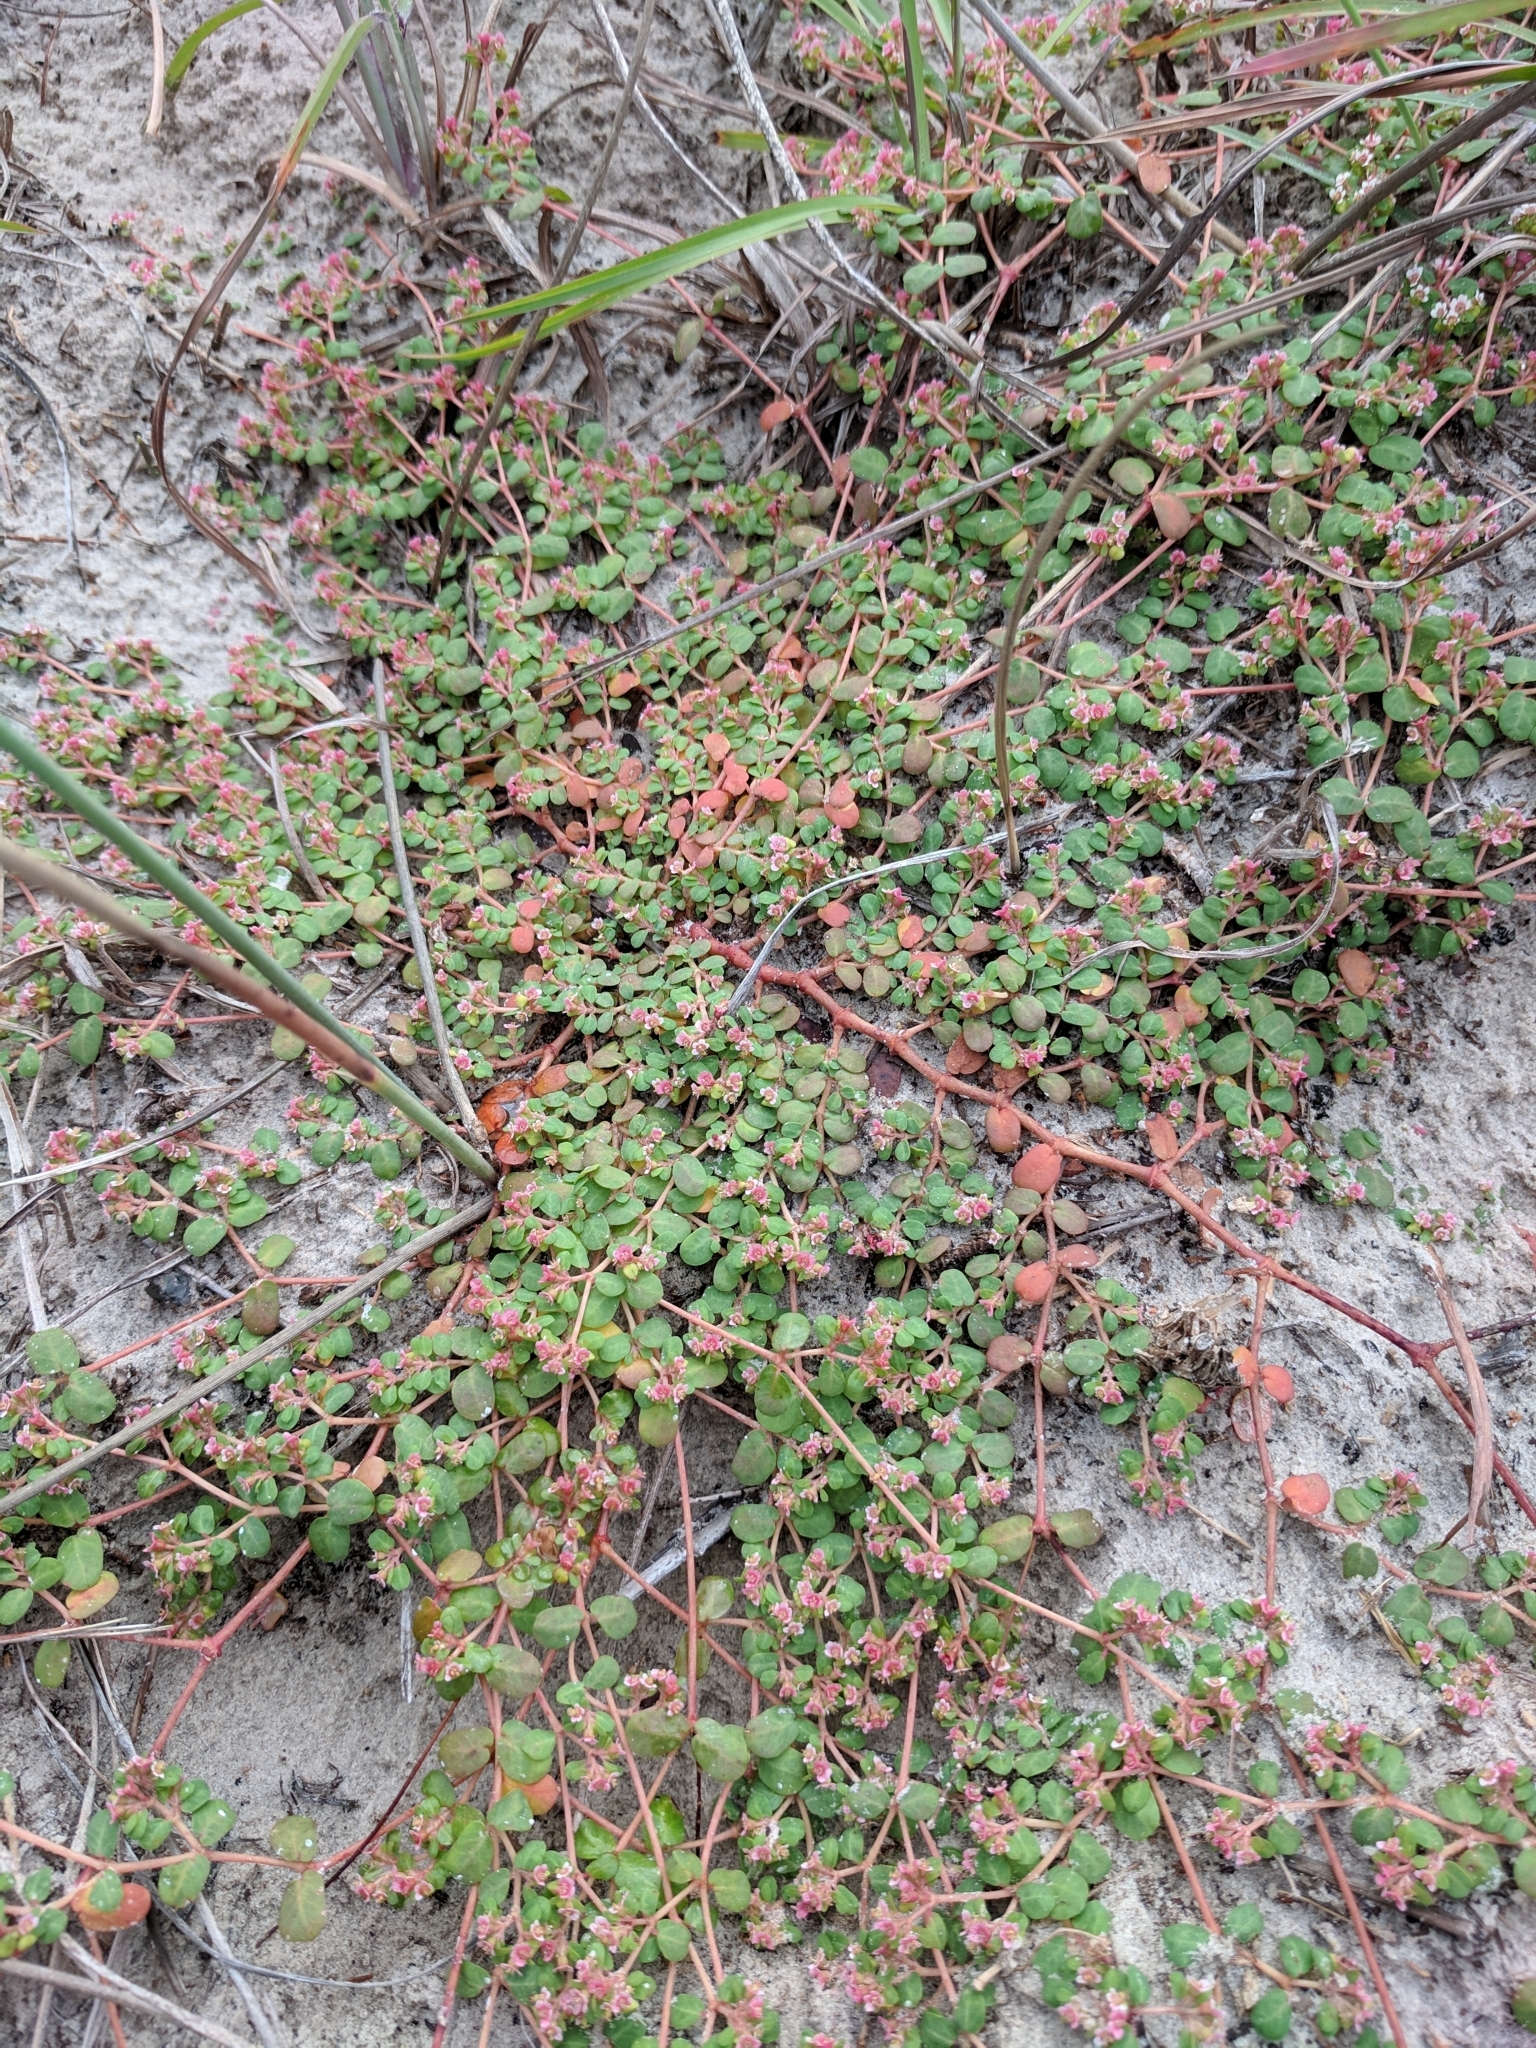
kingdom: Plantae
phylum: Tracheophyta
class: Magnoliopsida
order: Malpighiales
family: Euphorbiaceae
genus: Euphorbia
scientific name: Euphorbia cordifolia
